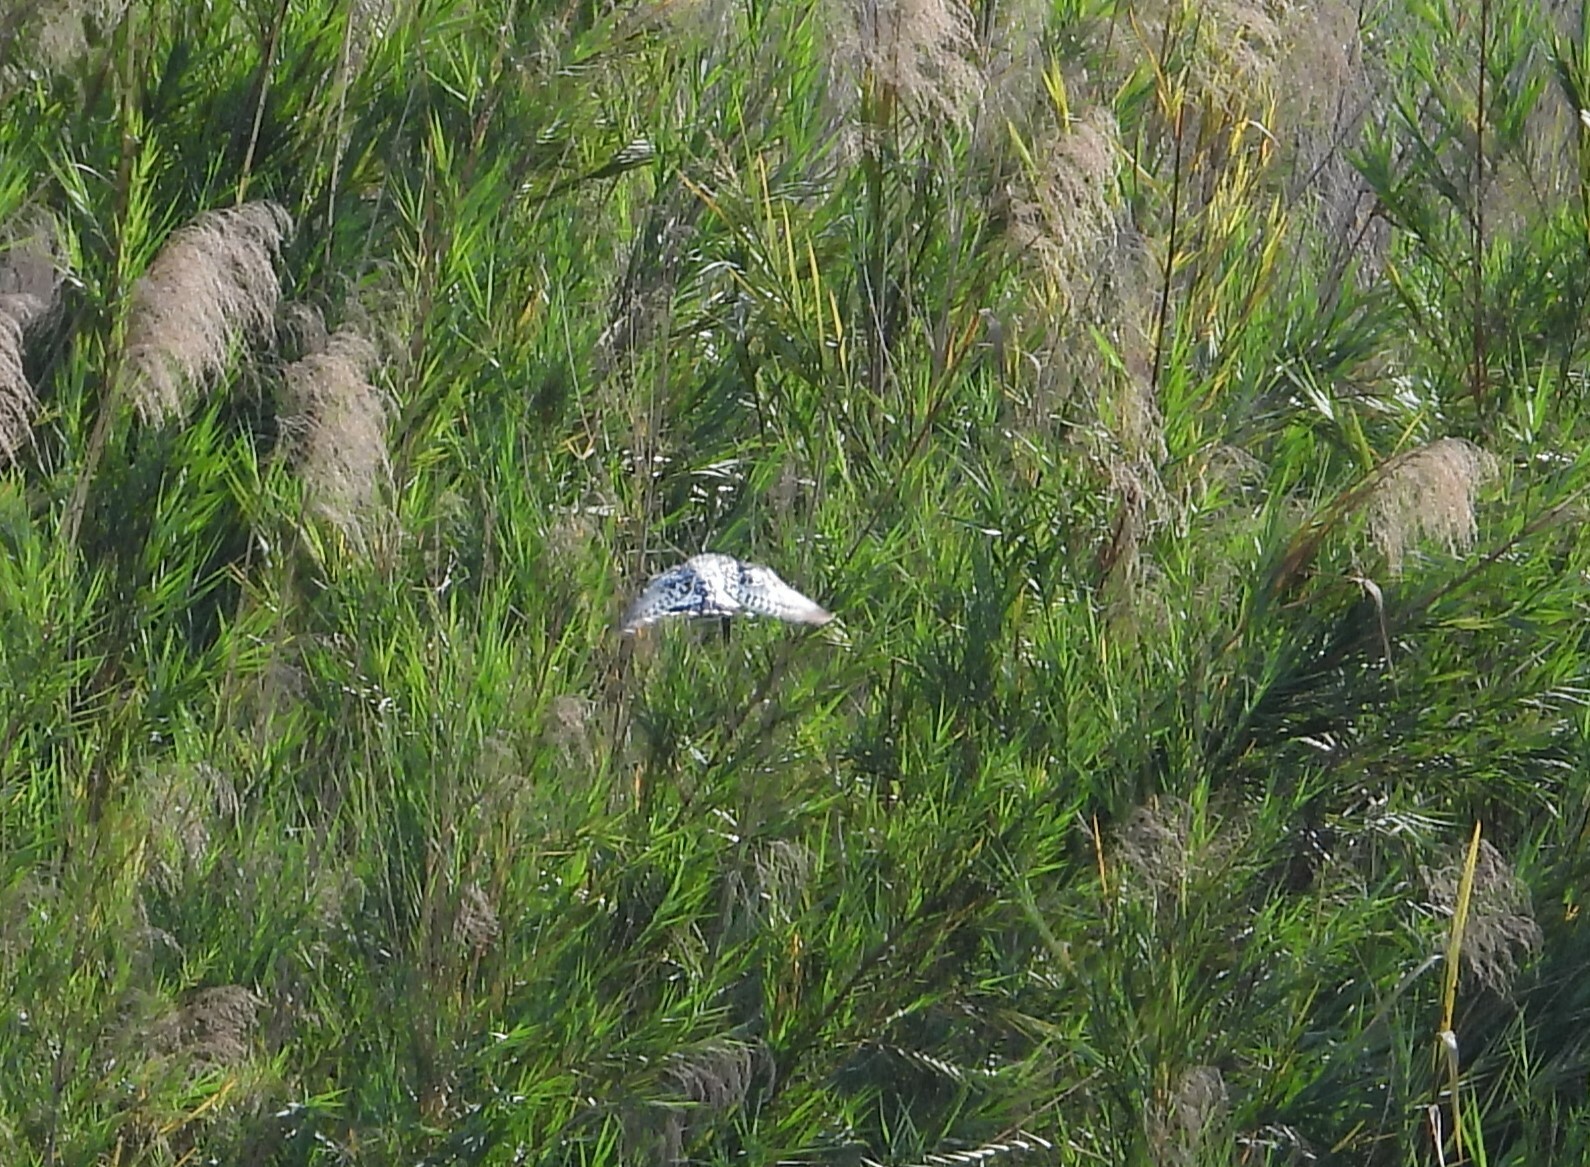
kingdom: Animalia
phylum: Chordata
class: Aves
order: Coraciiformes
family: Alcedinidae
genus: Ceryle
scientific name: Ceryle rudis
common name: Pied kingfisher
